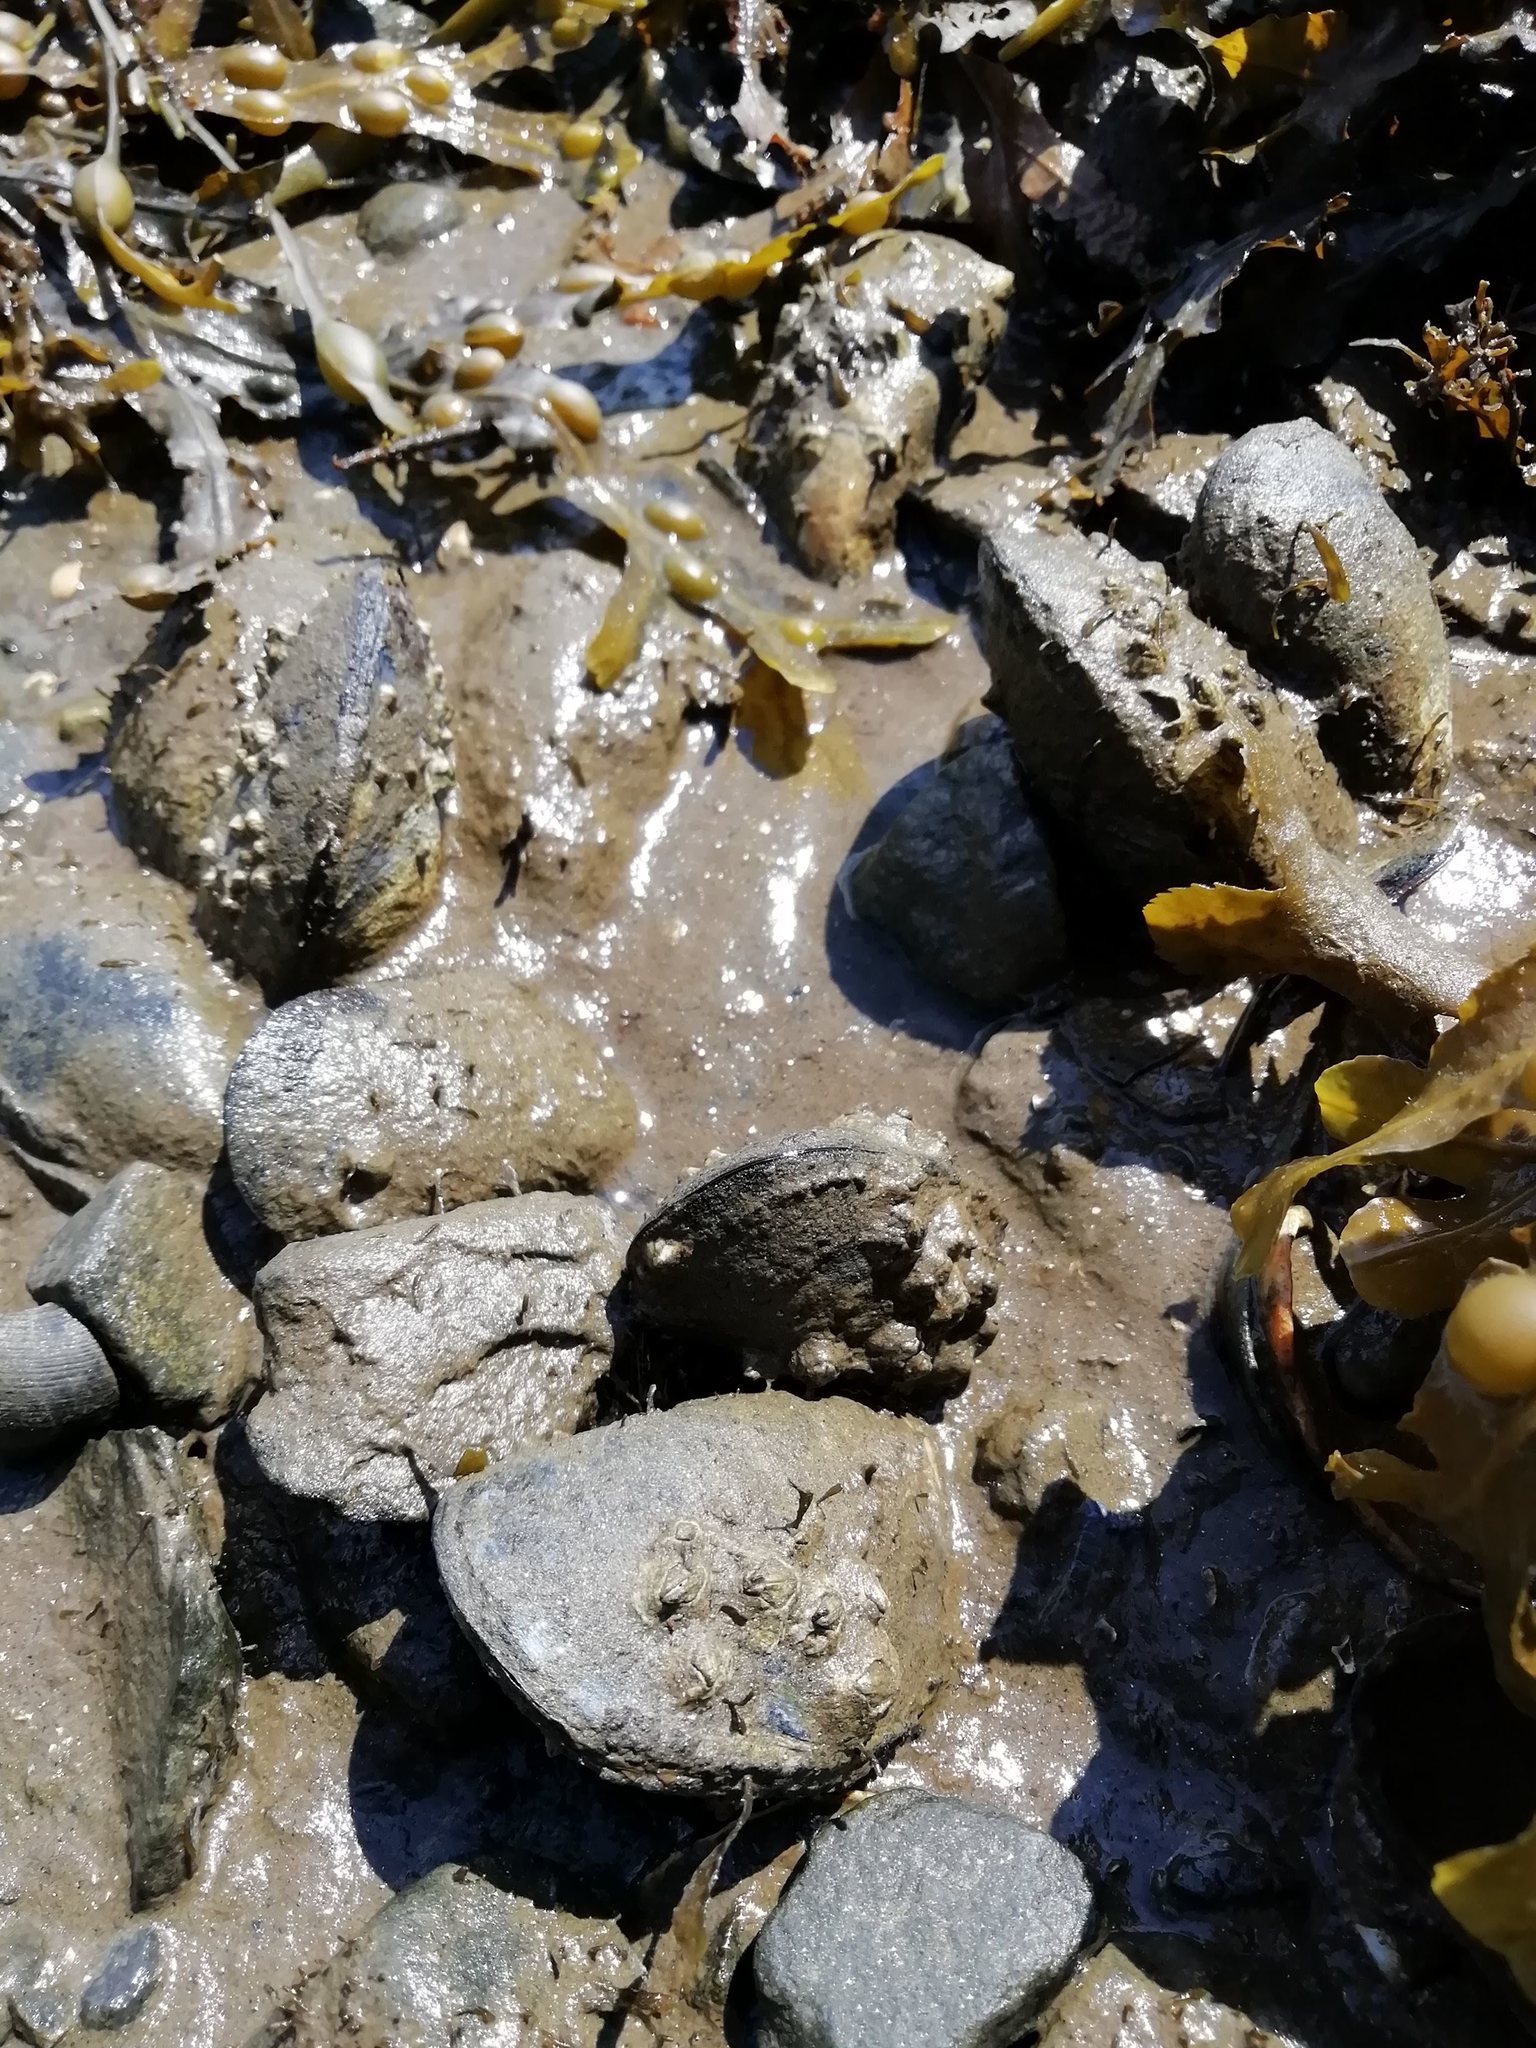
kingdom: Animalia
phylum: Mollusca
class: Bivalvia
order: Mytilida
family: Mytilidae
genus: Mytilus
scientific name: Mytilus edulis
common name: Blue mussel
